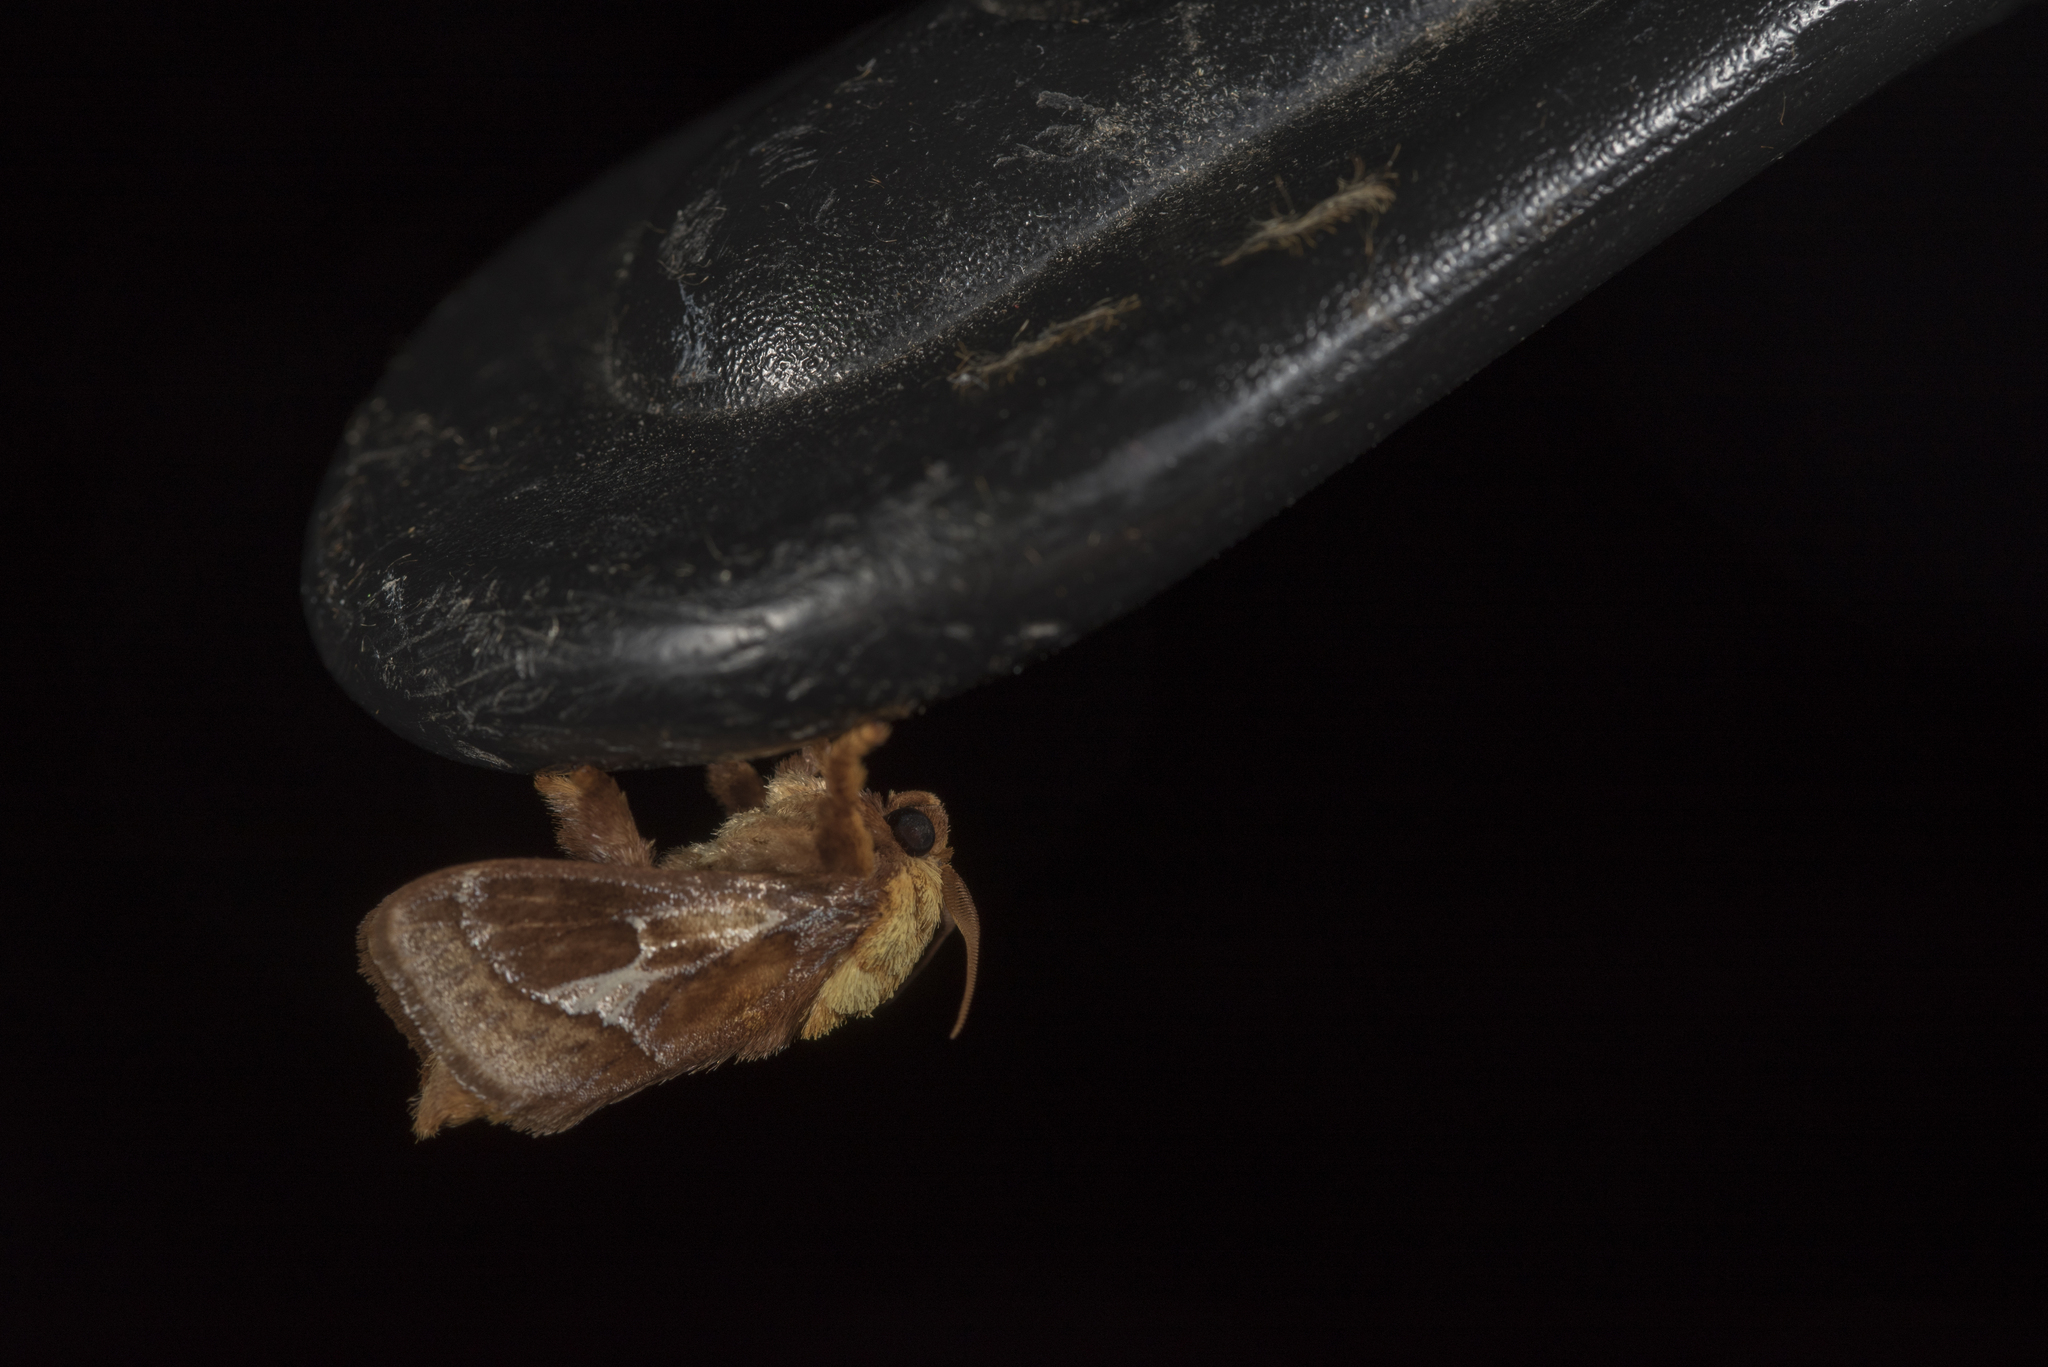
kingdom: Animalia
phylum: Arthropoda
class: Insecta
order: Lepidoptera
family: Limacodidae
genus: Miresa
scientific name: Miresa fulgida
